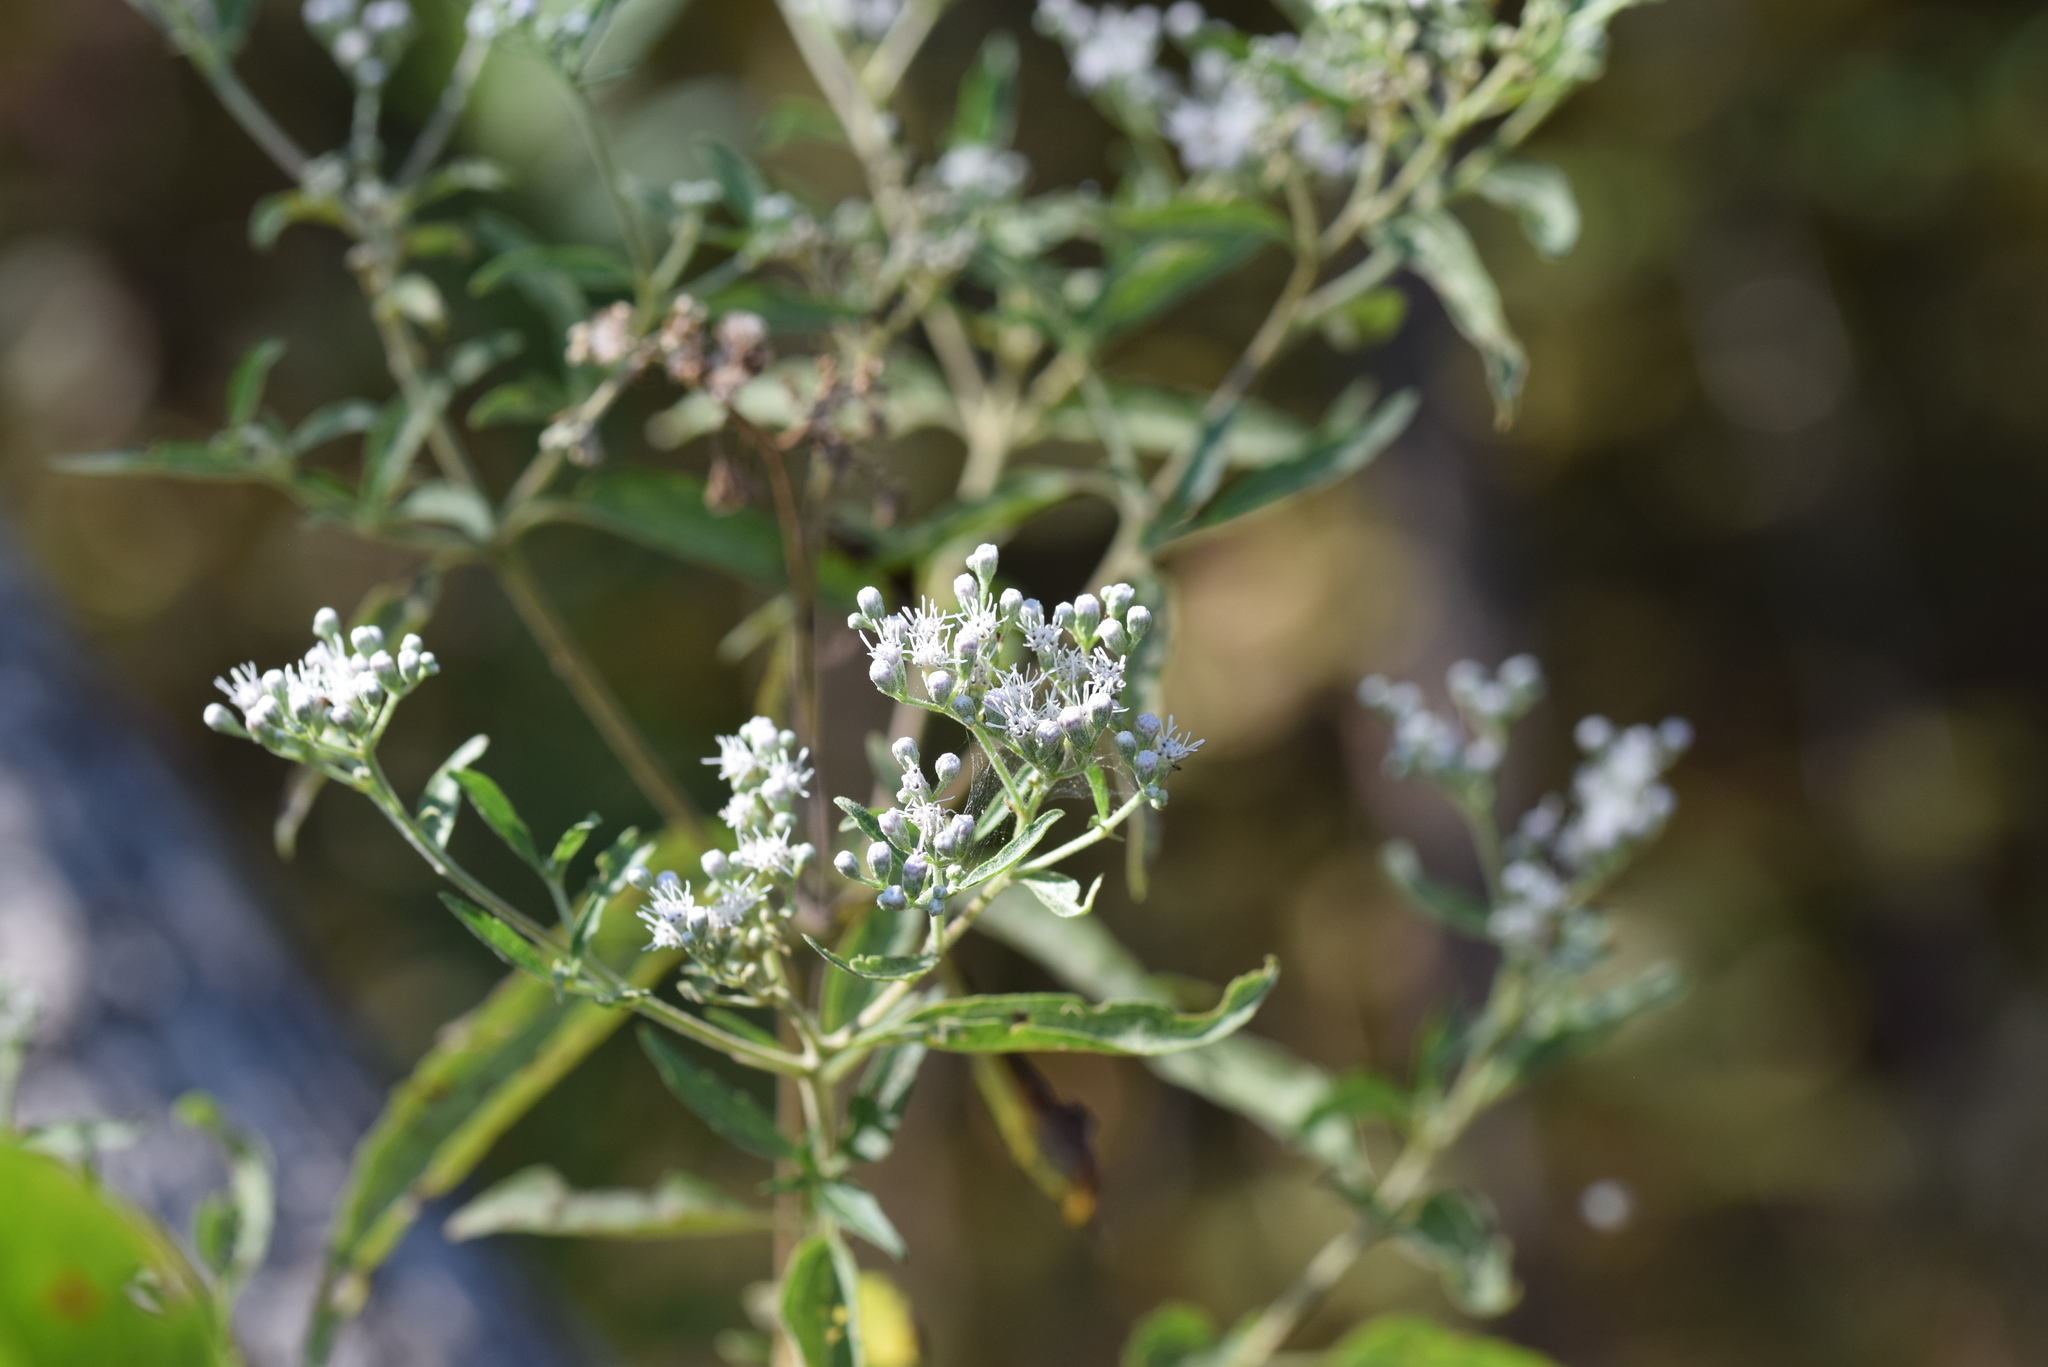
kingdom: Plantae
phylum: Tracheophyta
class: Magnoliopsida
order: Asterales
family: Asteraceae
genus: Eupatorium
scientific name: Eupatorium serotinum
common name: Late boneset
